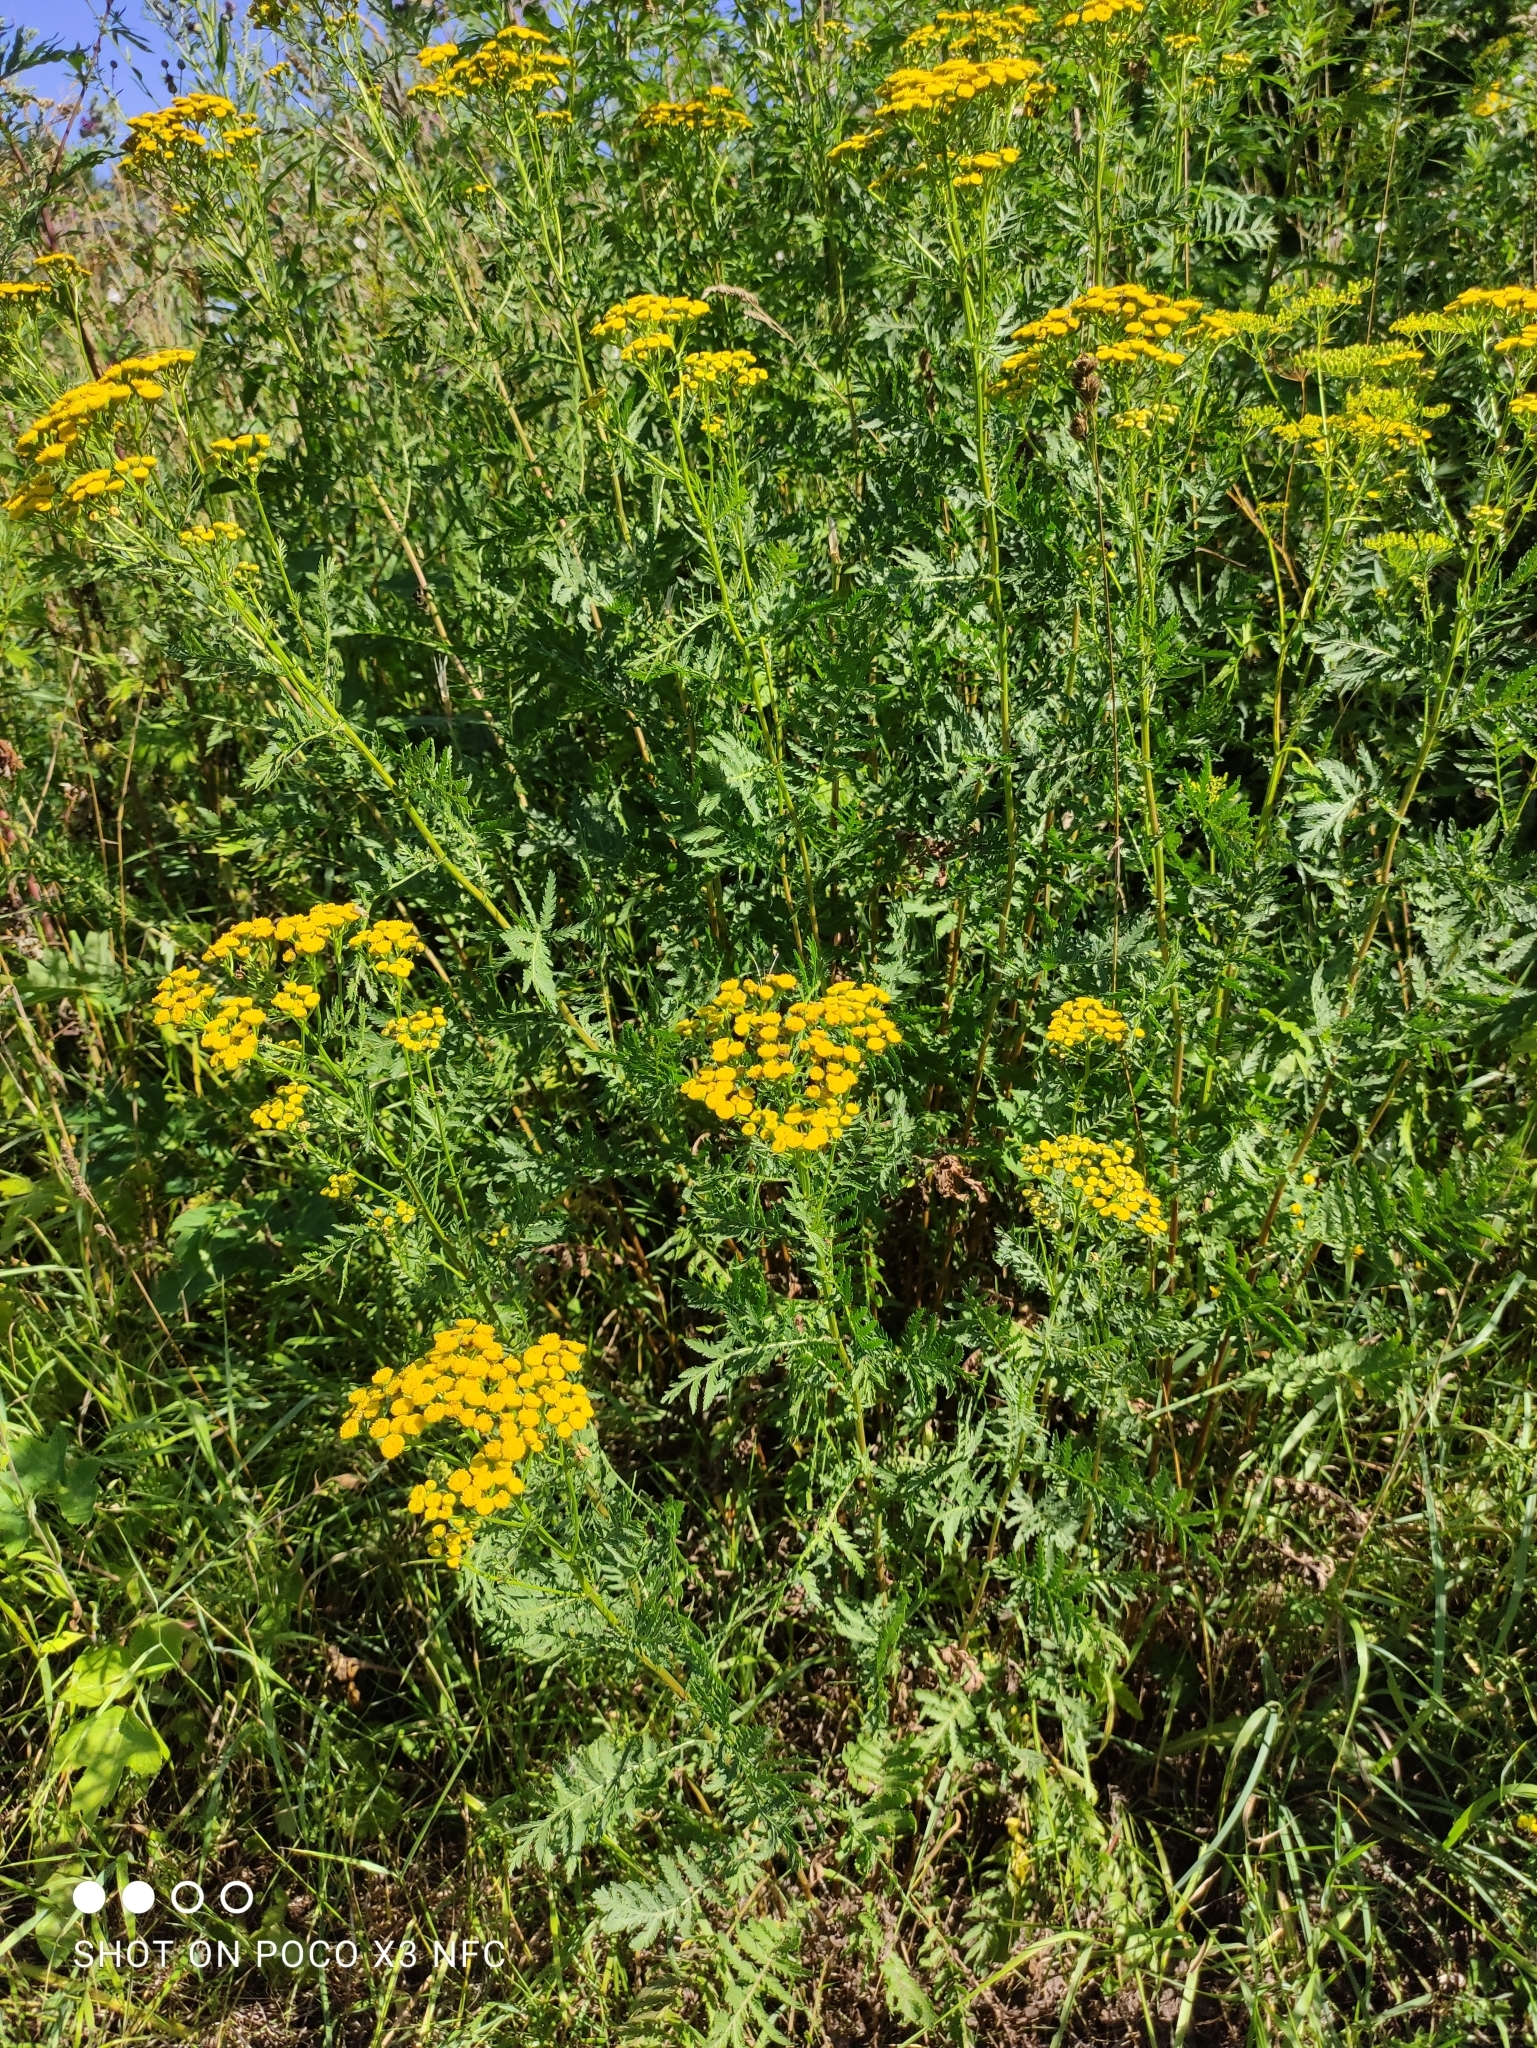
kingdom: Plantae
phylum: Tracheophyta
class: Magnoliopsida
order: Asterales
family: Asteraceae
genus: Tanacetum
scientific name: Tanacetum vulgare
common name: Common tansy
